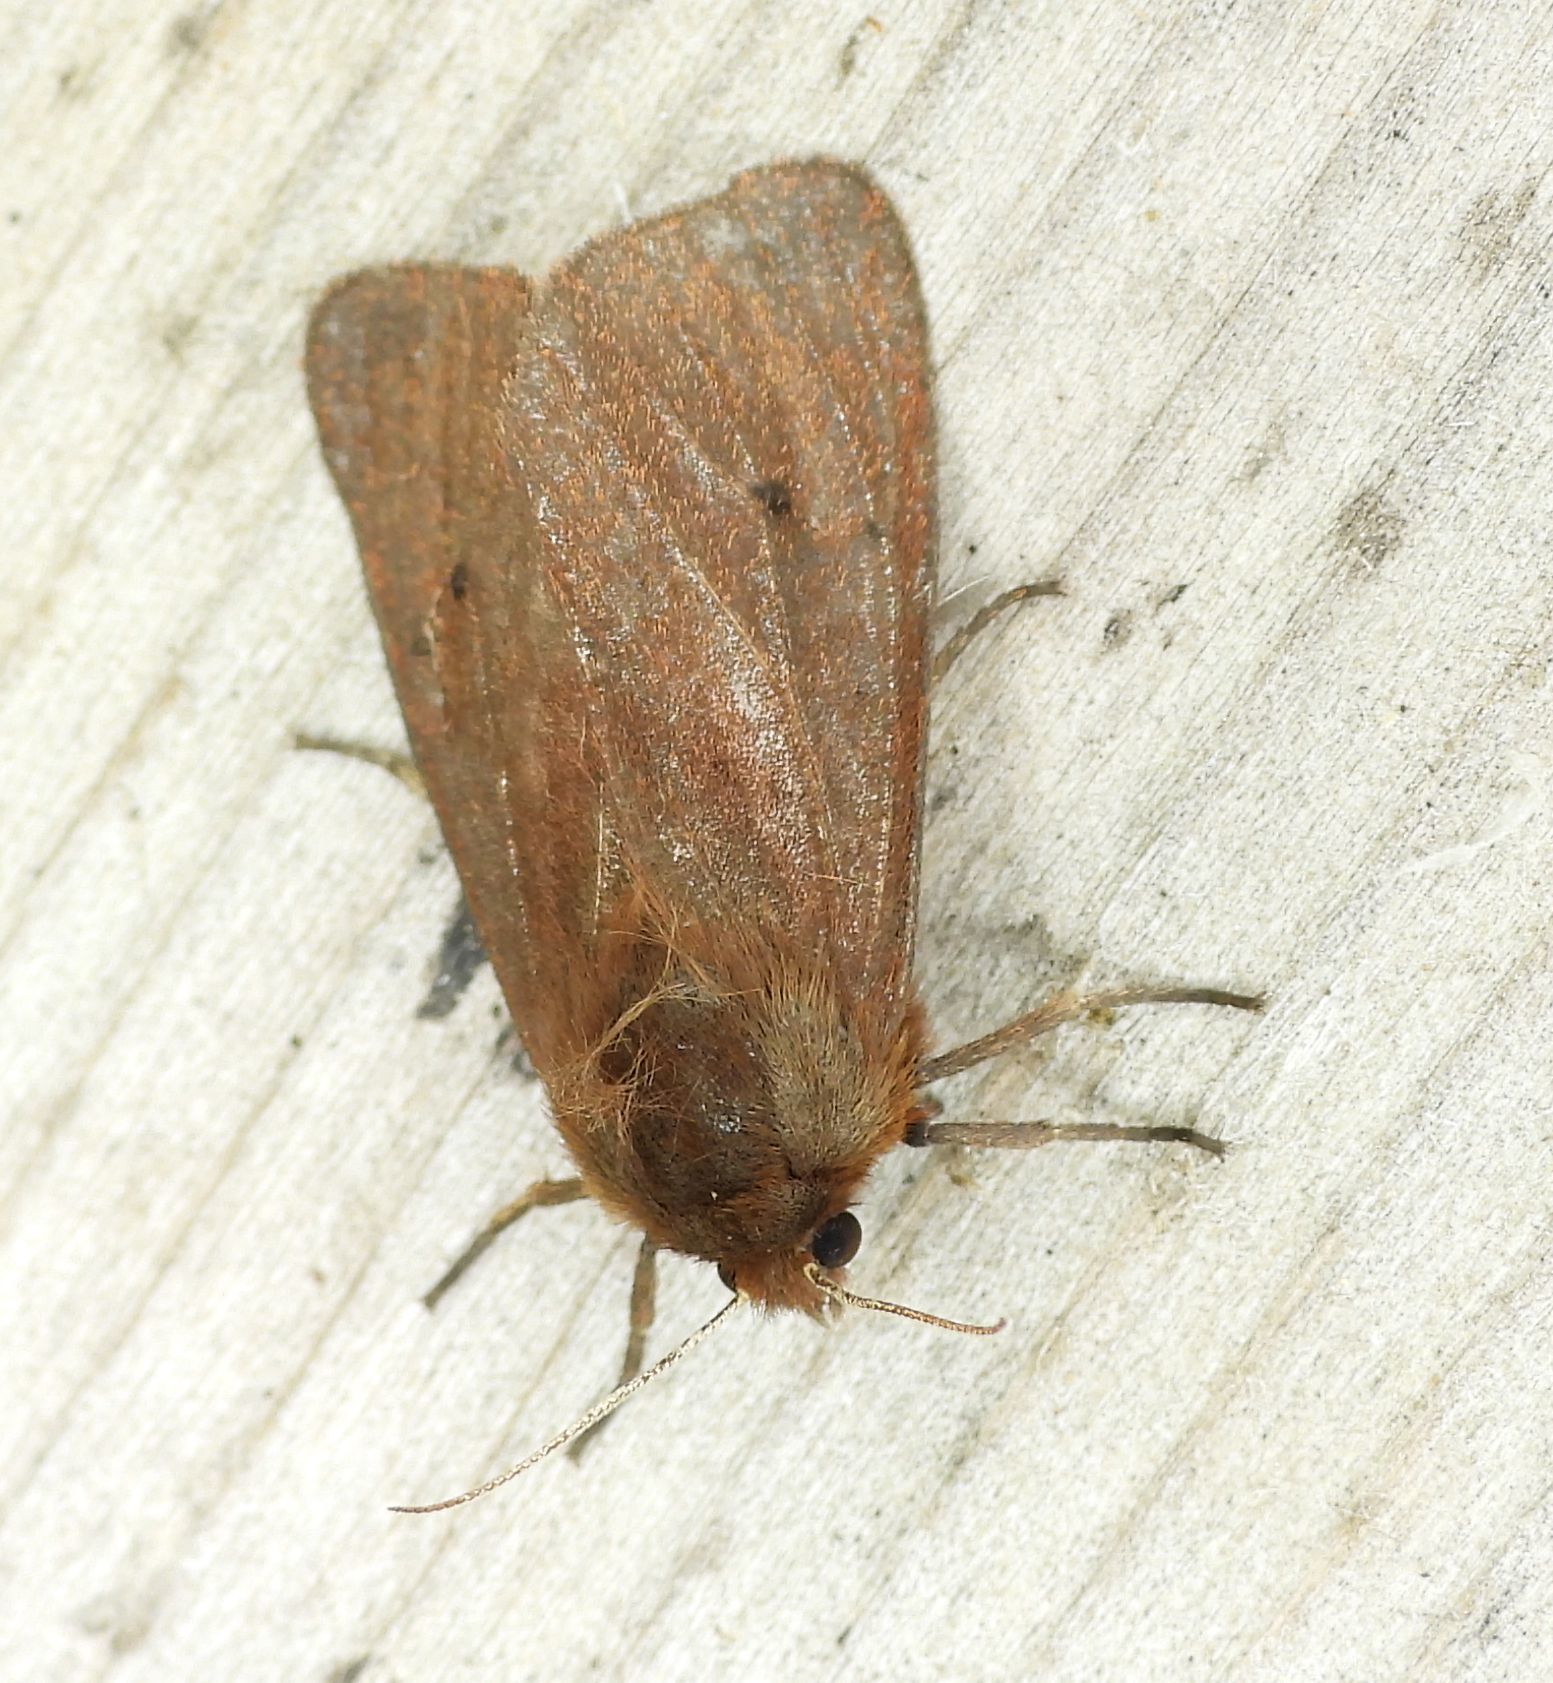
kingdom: Animalia
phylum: Arthropoda
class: Insecta
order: Lepidoptera
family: Erebidae
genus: Phragmatobia
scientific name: Phragmatobia fuliginosa
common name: Ruby tiger
